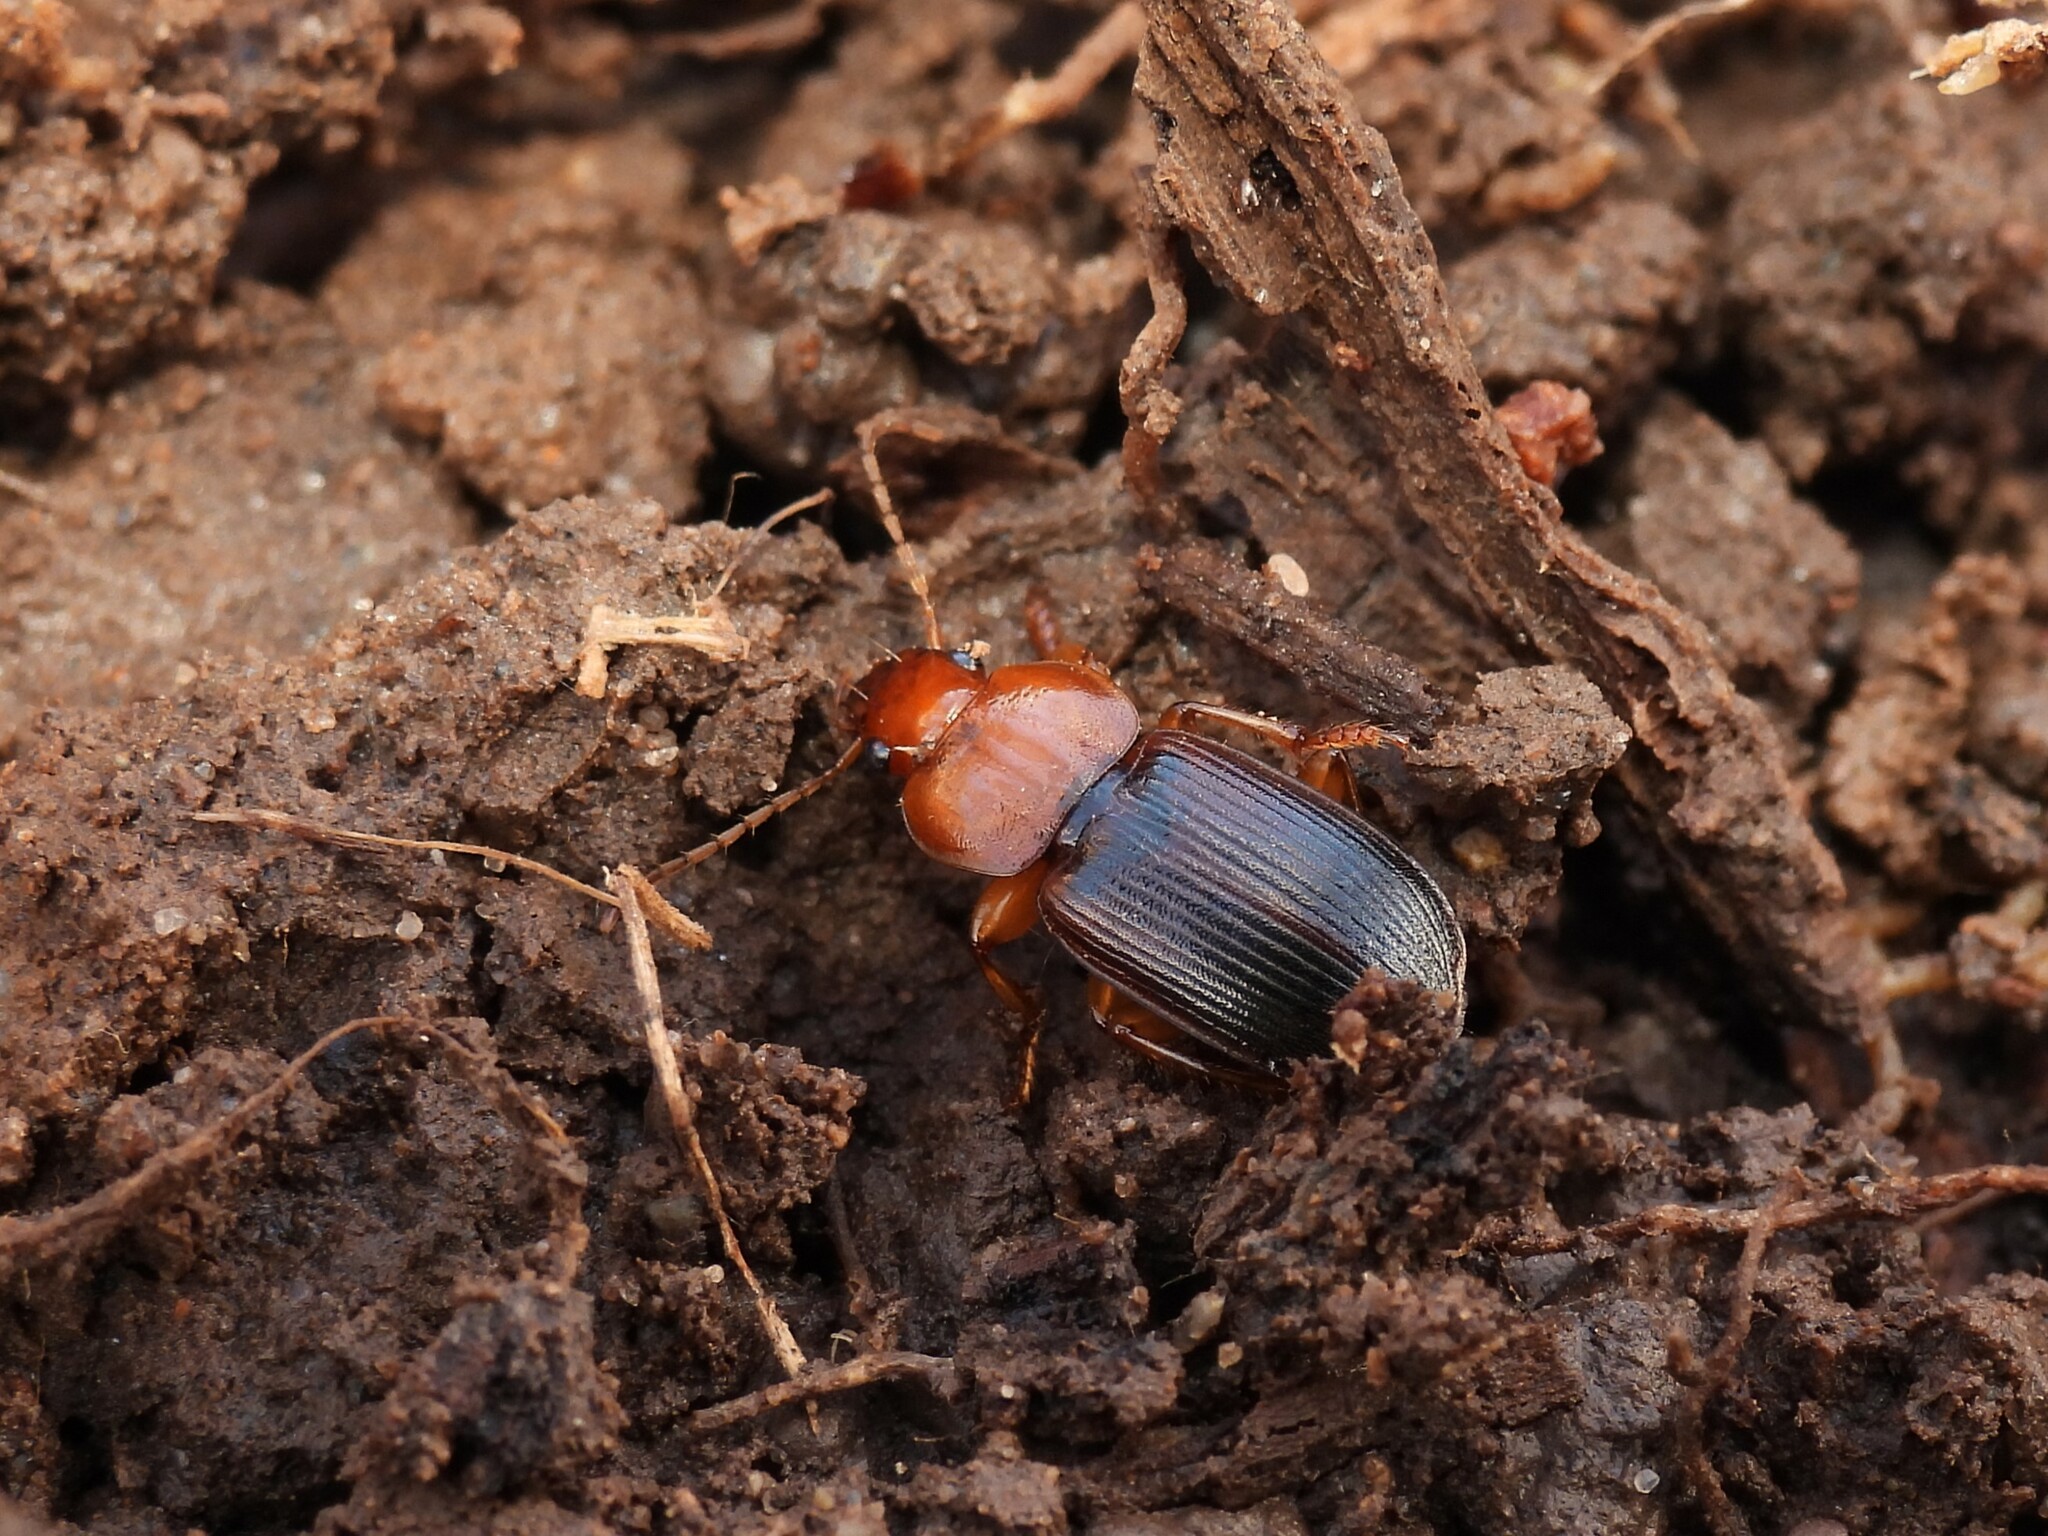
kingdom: Animalia
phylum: Arthropoda
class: Insecta
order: Coleoptera
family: Carabidae
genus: Amphasia
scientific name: Amphasia interstitialis
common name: Red-headed ground beetle
